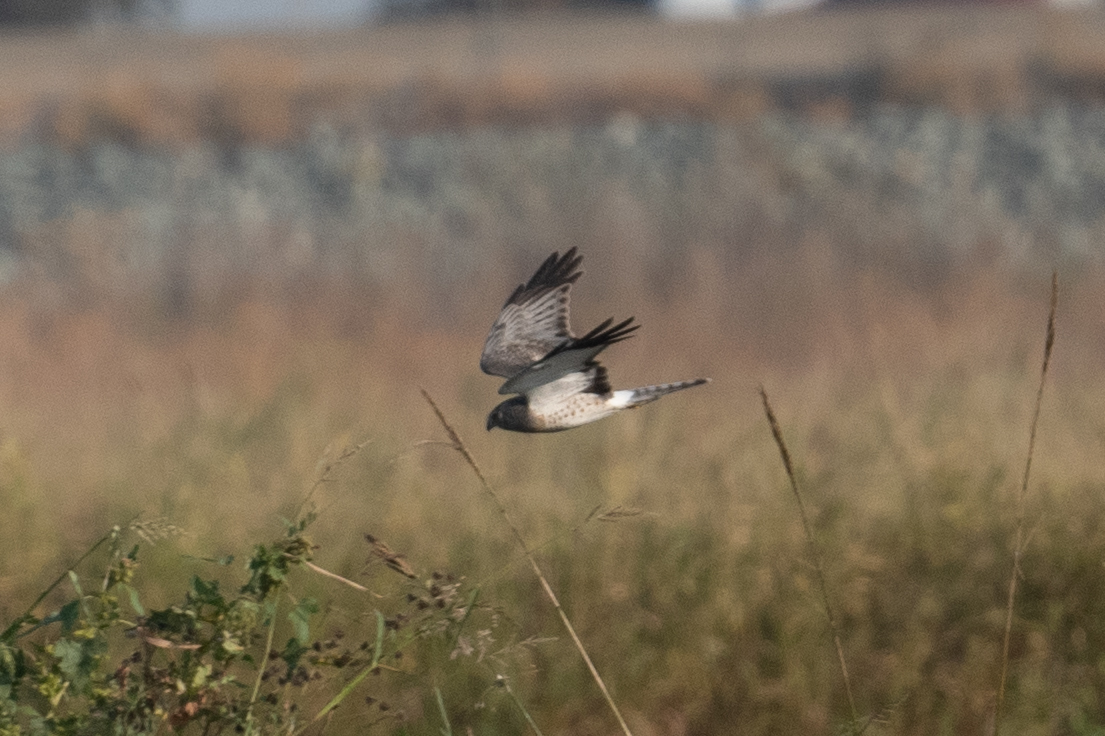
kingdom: Animalia
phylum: Chordata
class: Aves
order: Accipitriformes
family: Accipitridae
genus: Circus
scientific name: Circus cyaneus
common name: Hen harrier
